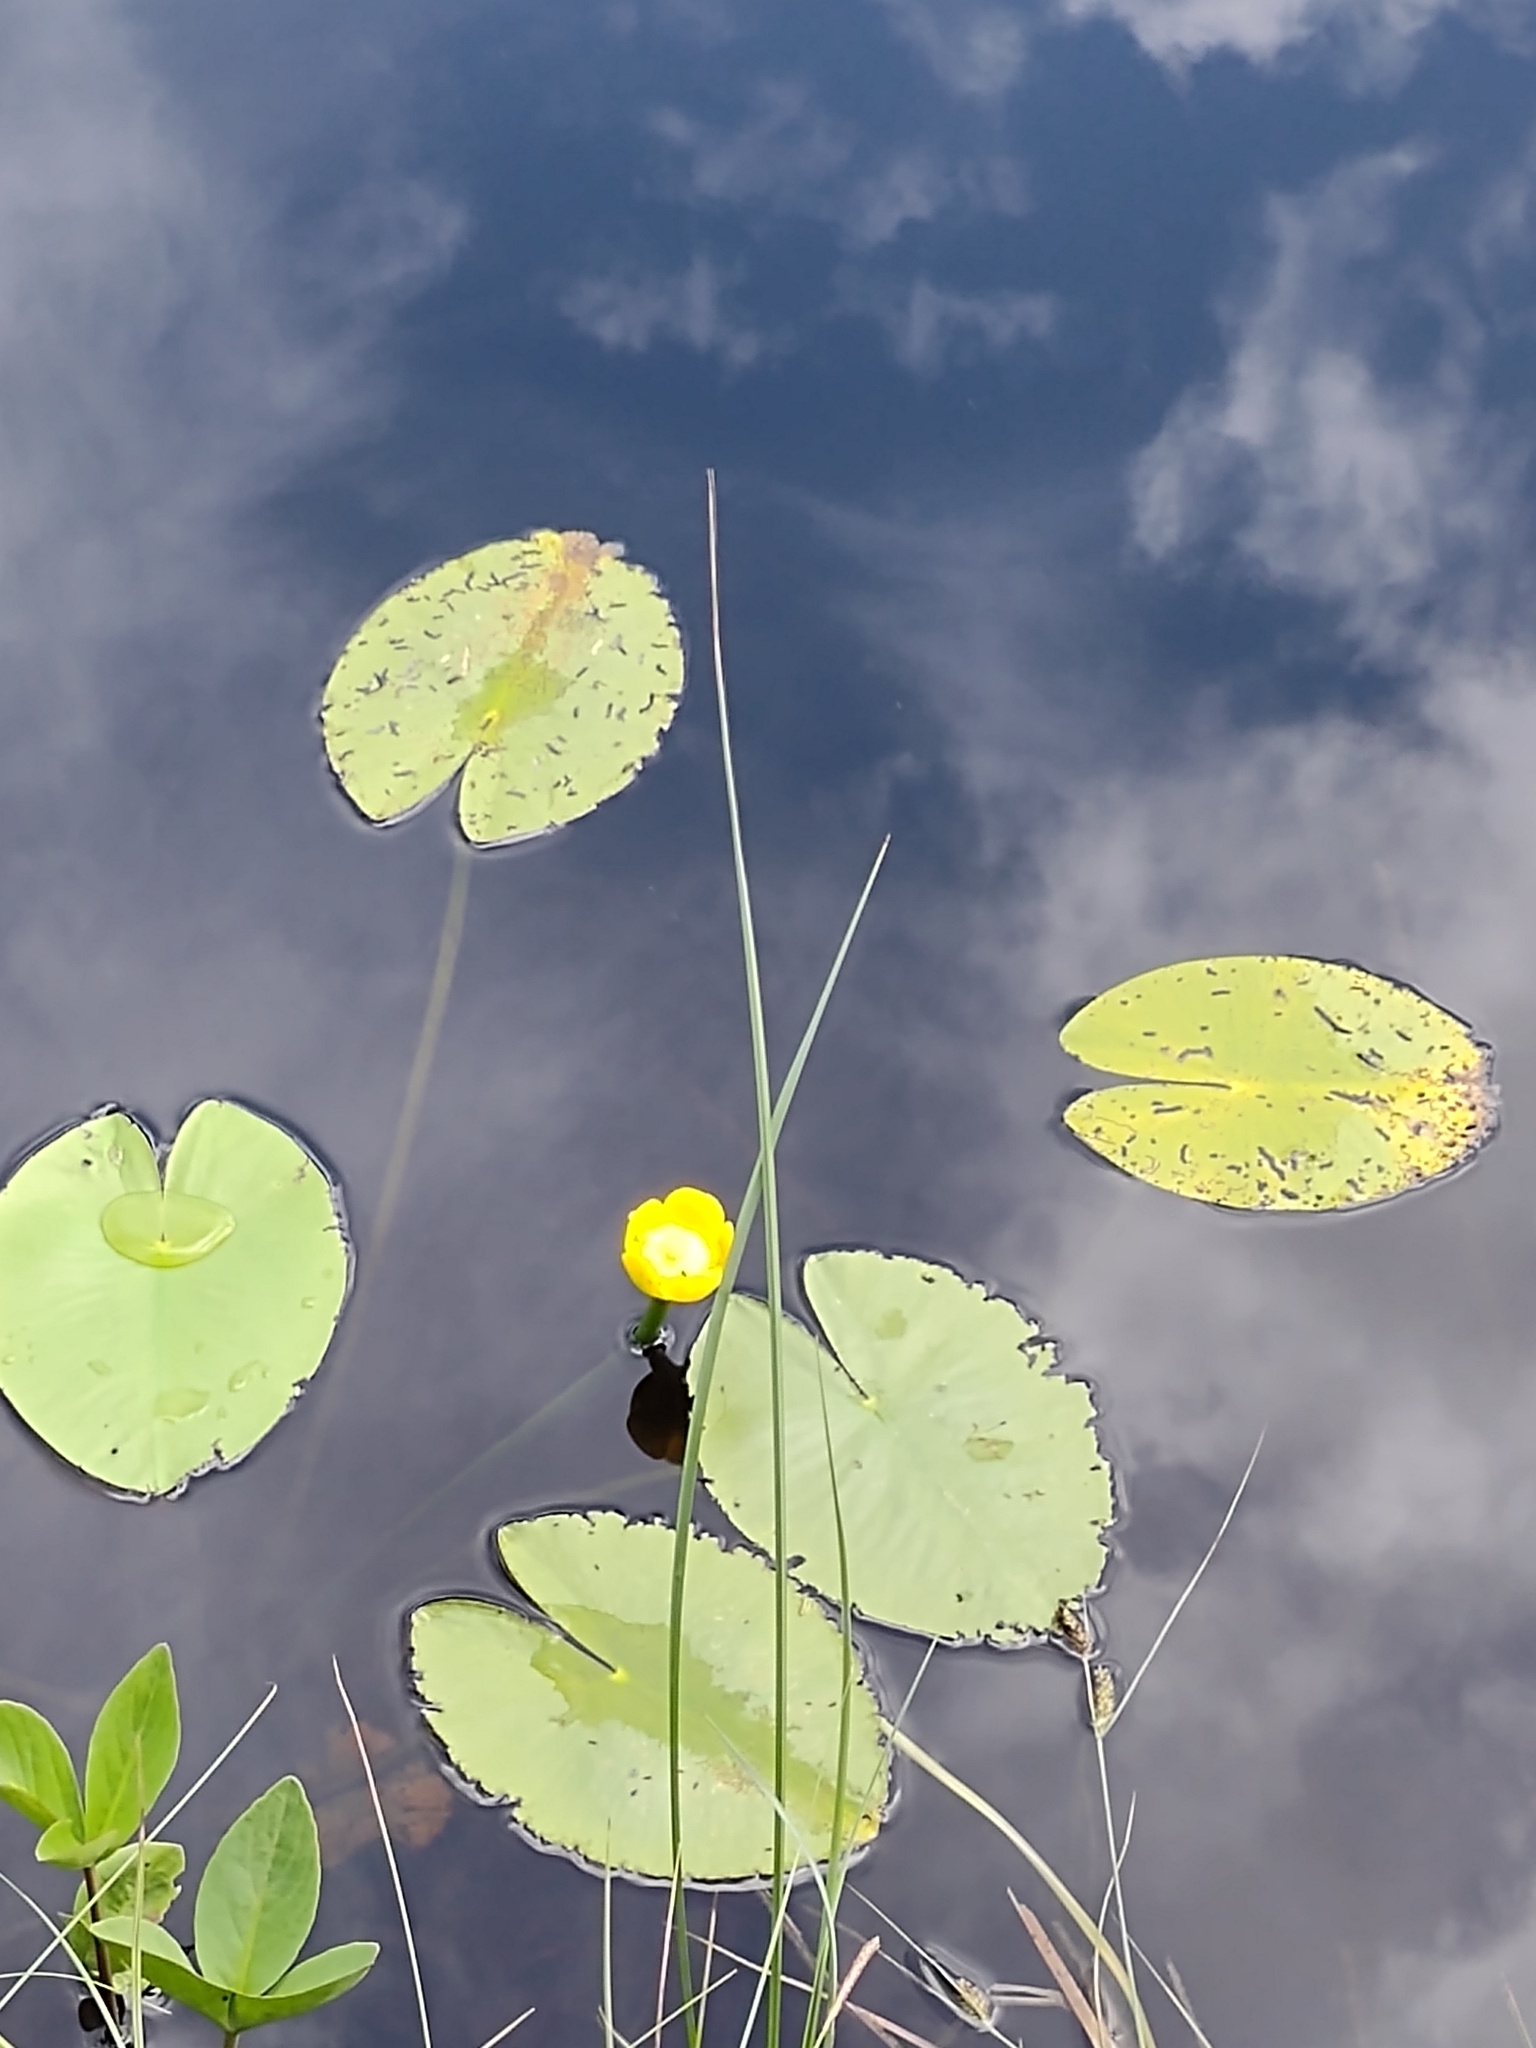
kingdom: Plantae
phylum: Tracheophyta
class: Magnoliopsida
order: Nymphaeales
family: Nymphaeaceae
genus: Nuphar
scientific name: Nuphar lutea
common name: Yellow water-lily
